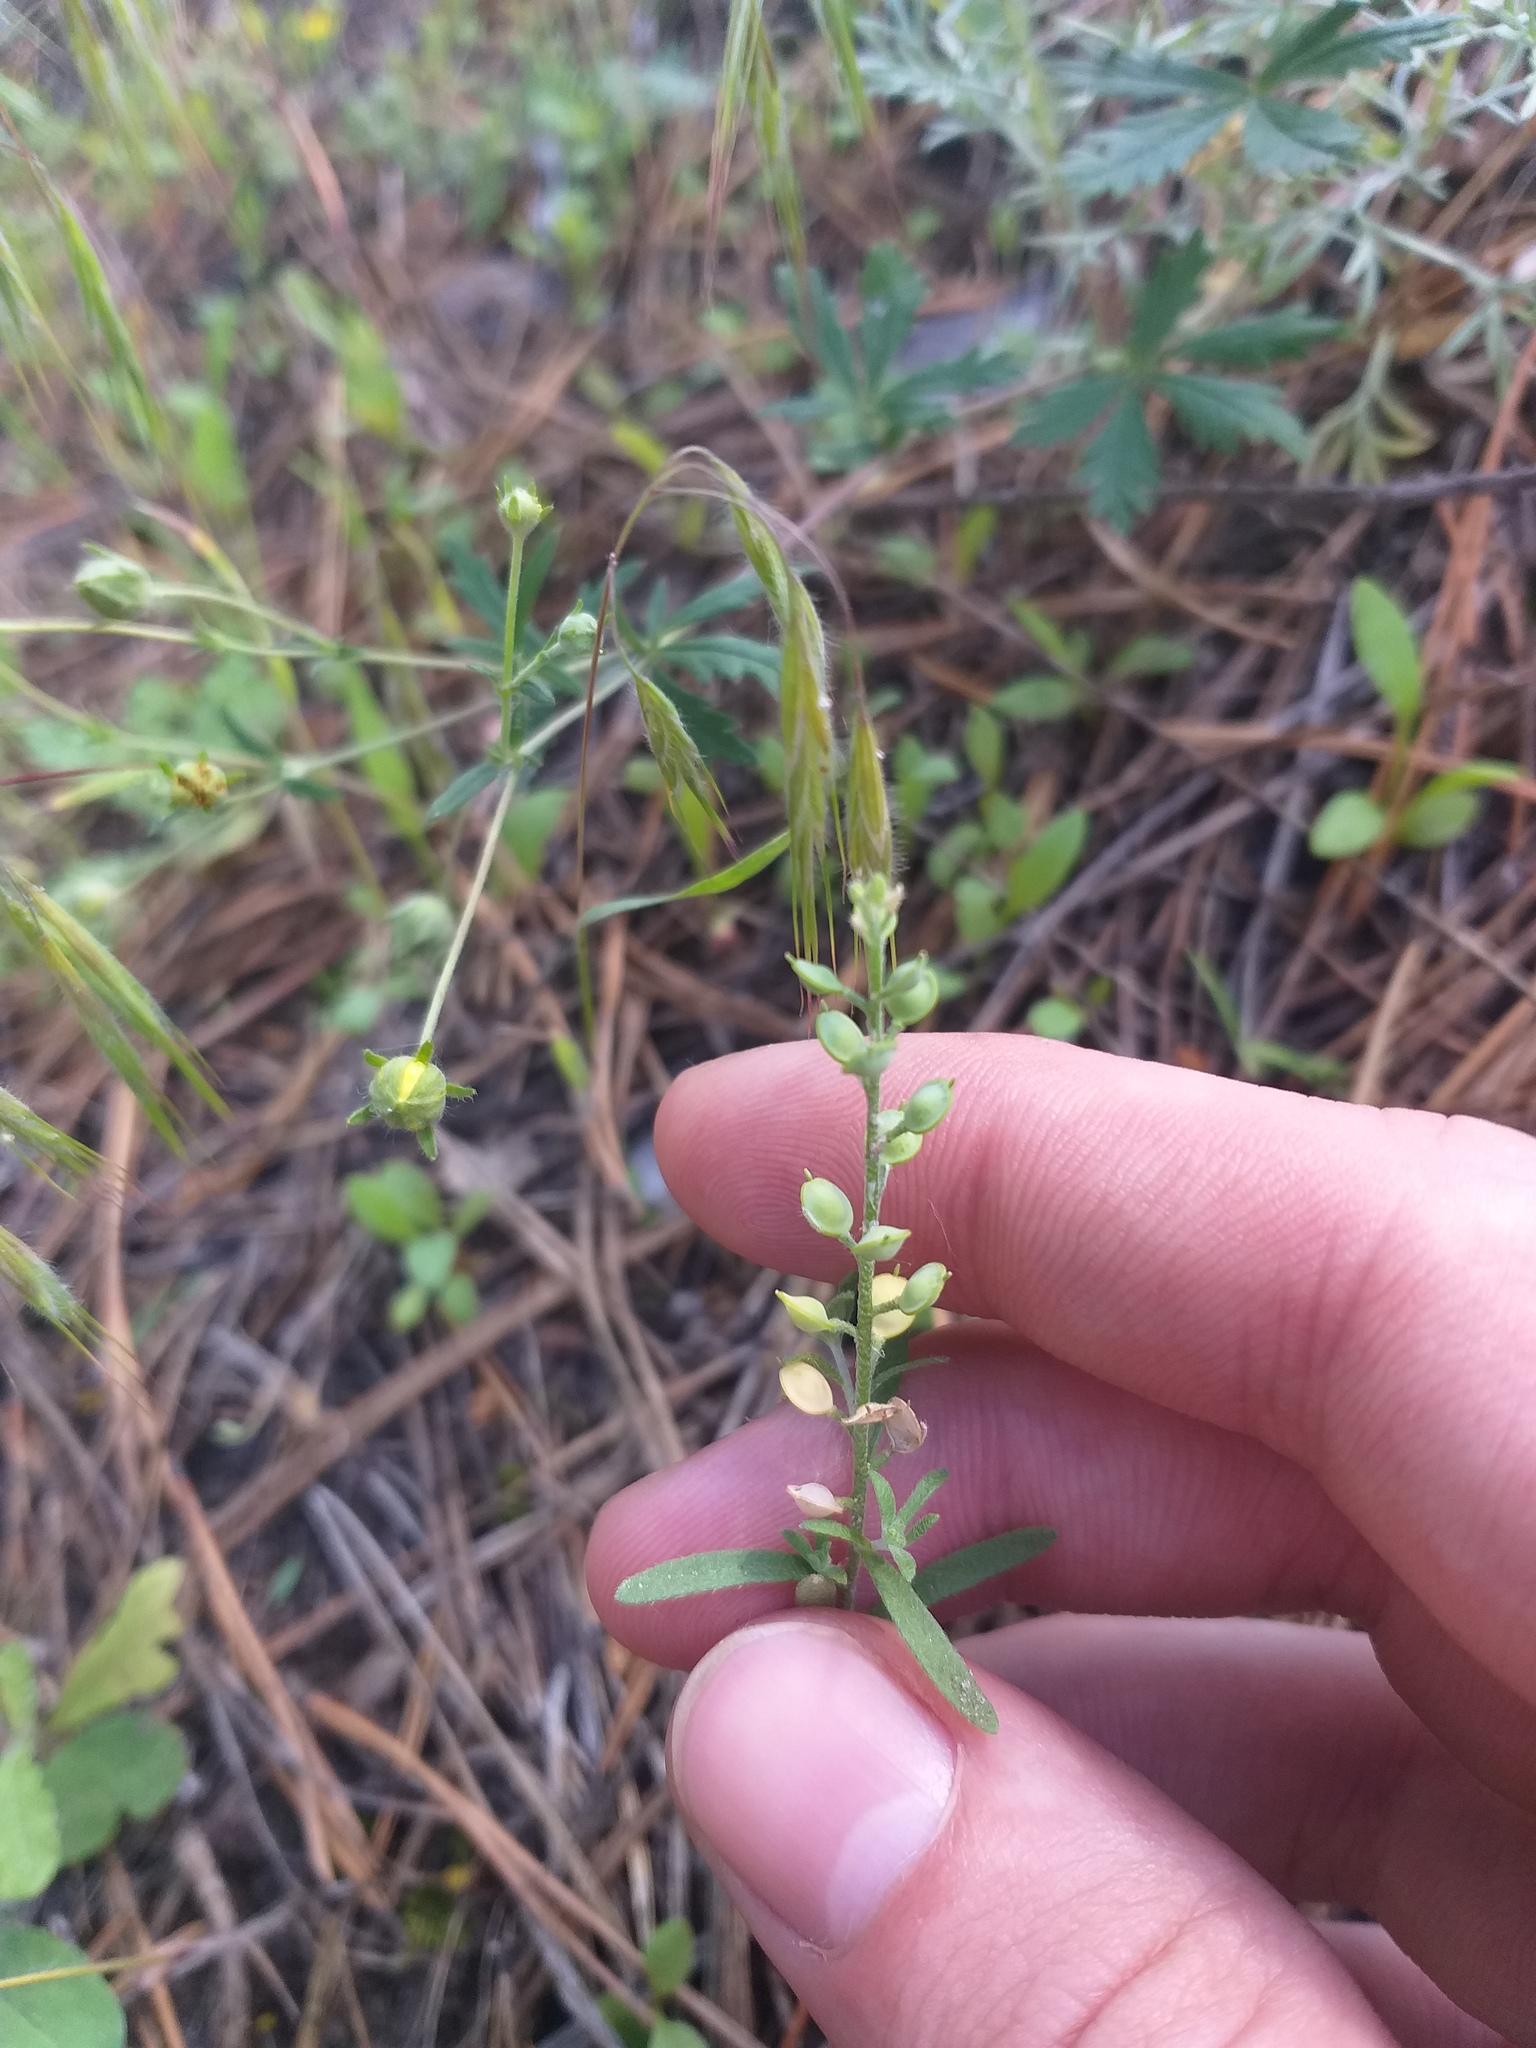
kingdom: Plantae
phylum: Tracheophyta
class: Magnoliopsida
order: Brassicales
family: Brassicaceae
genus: Alyssum
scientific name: Alyssum turkestanicum
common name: Desert alyssum
